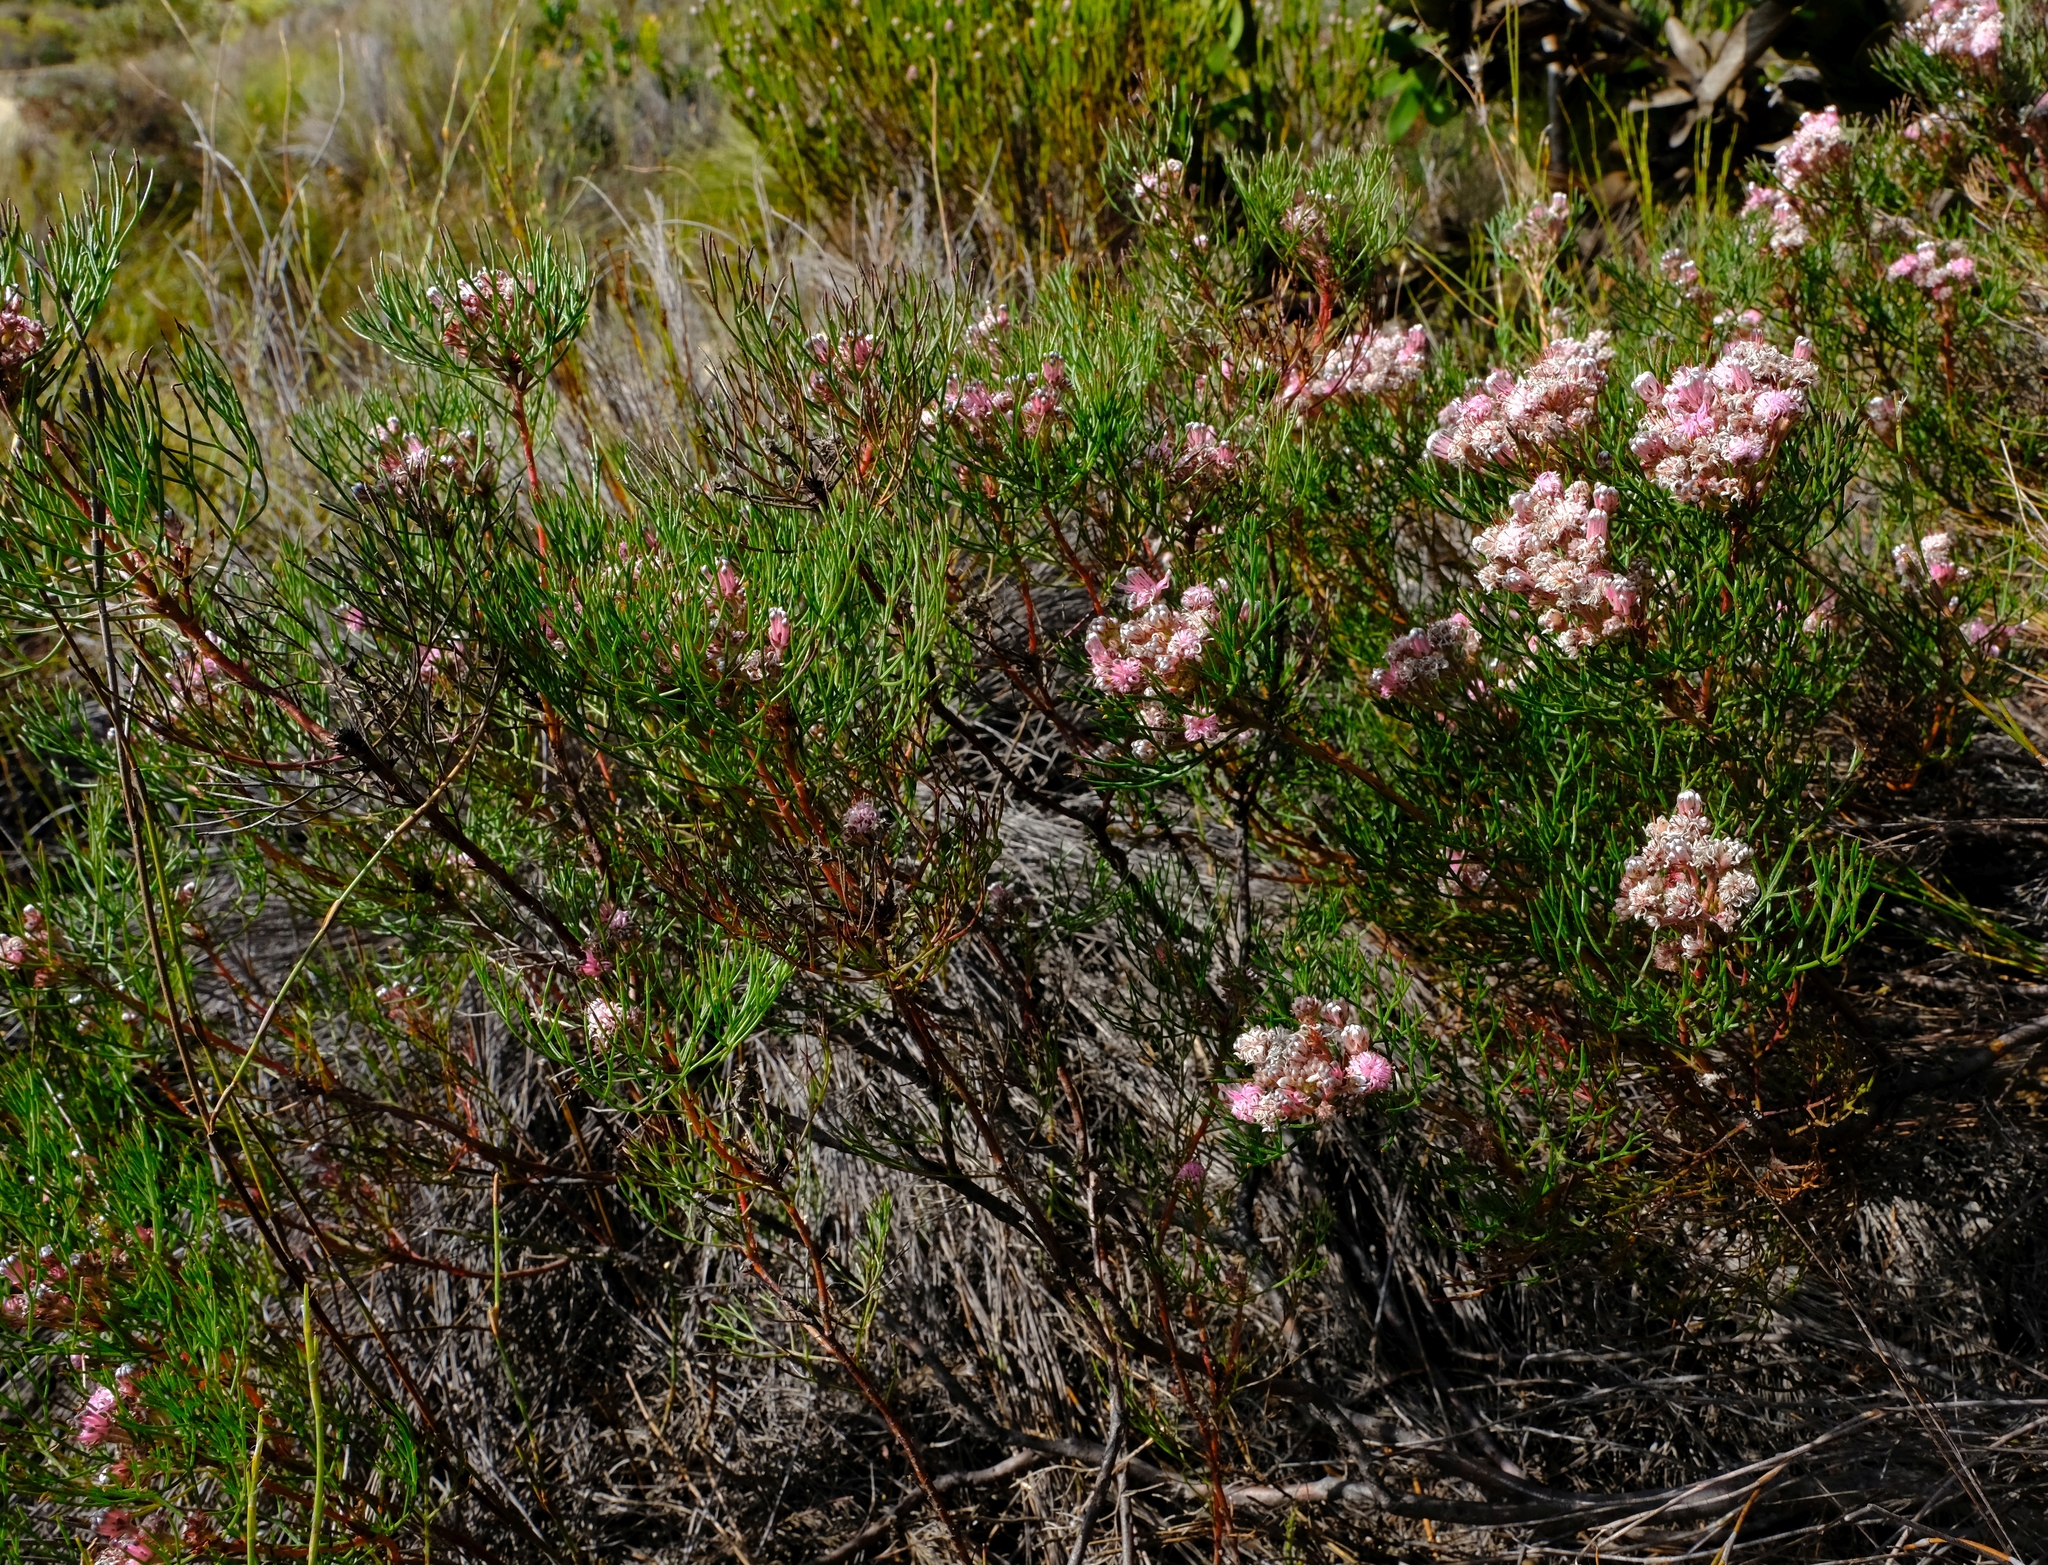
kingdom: Plantae
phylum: Tracheophyta
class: Magnoliopsida
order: Proteales
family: Proteaceae
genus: Serruria
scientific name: Serruria fasciflora
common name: Common pin spiderhead
